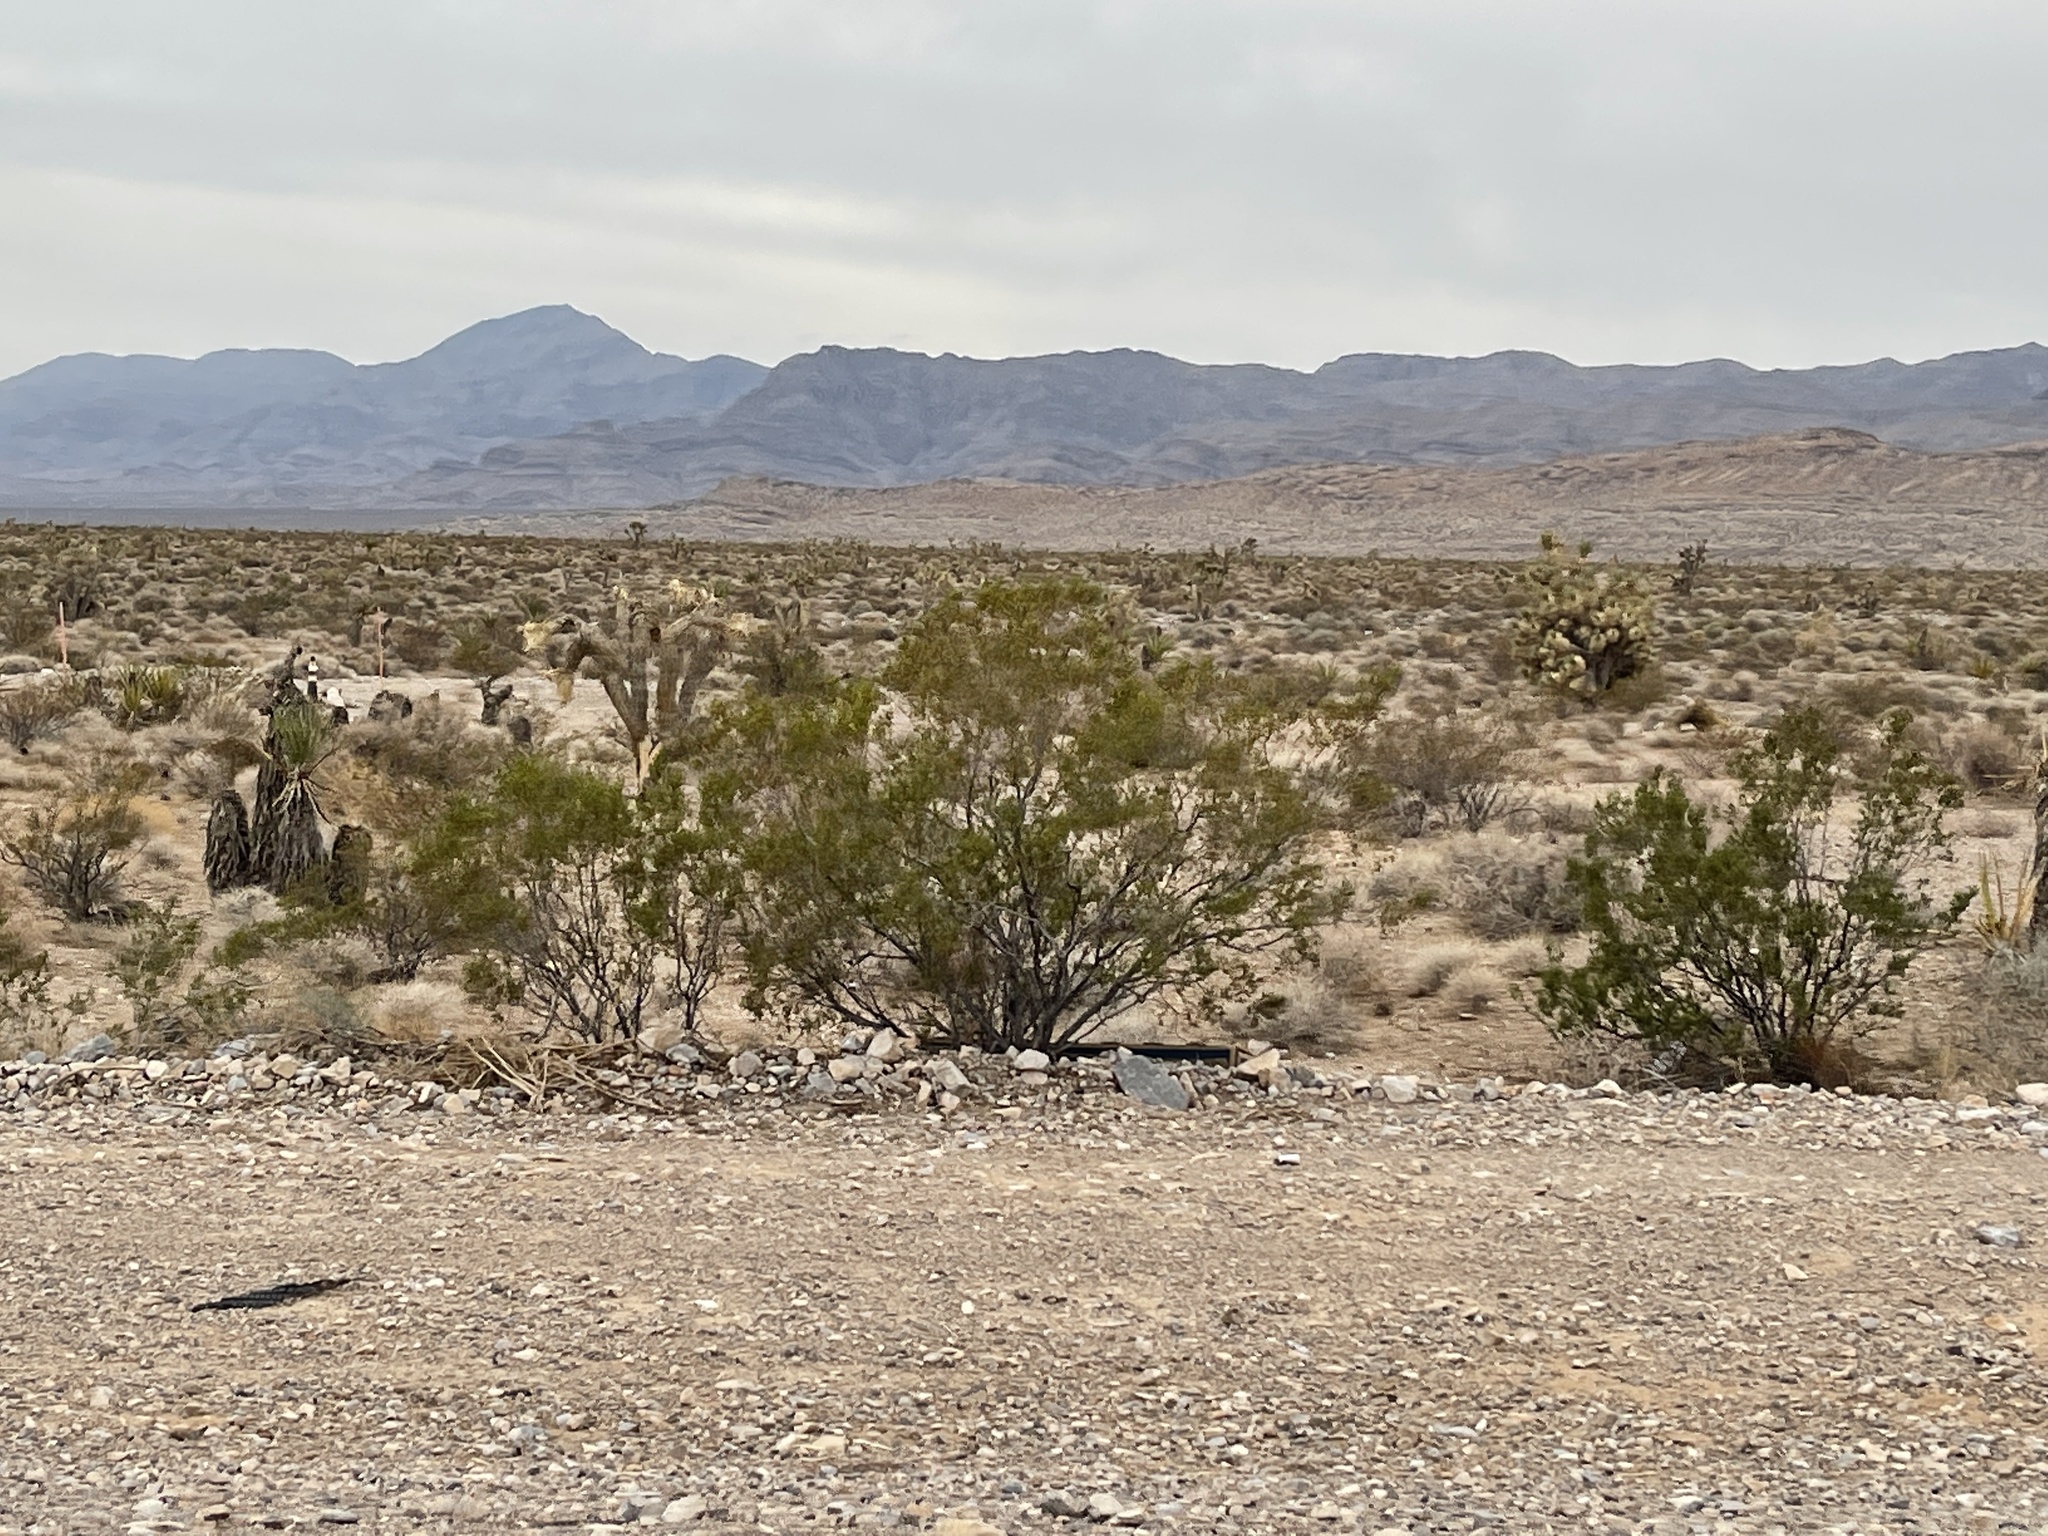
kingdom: Plantae
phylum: Tracheophyta
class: Magnoliopsida
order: Zygophyllales
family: Zygophyllaceae
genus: Larrea
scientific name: Larrea tridentata
